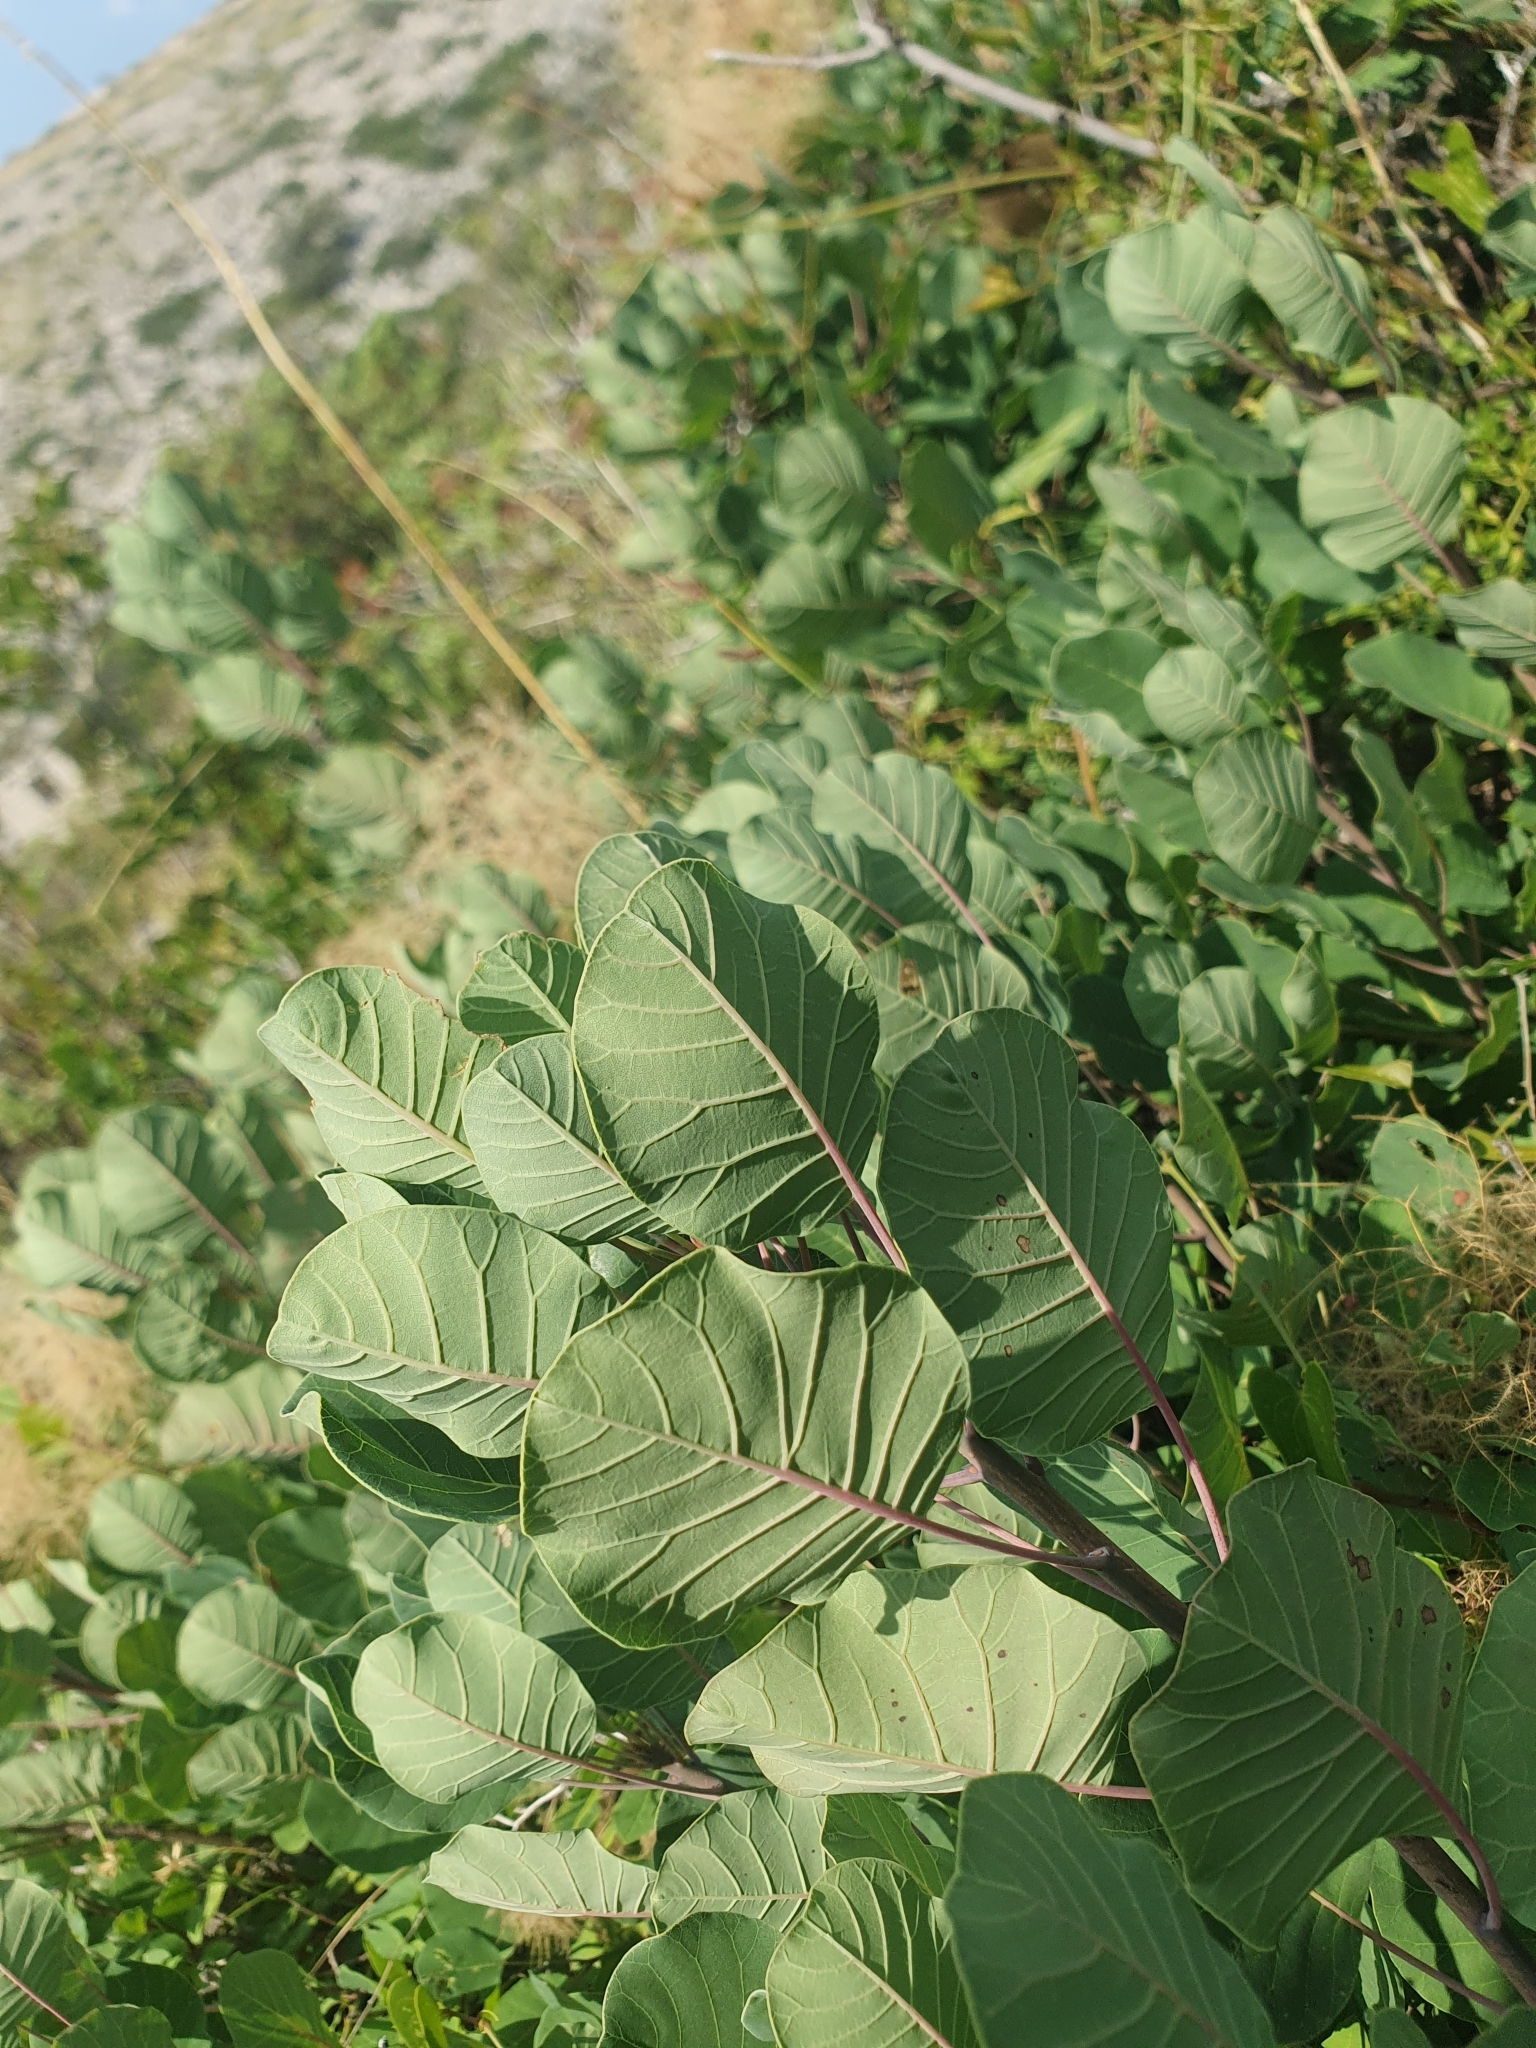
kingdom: Plantae
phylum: Tracheophyta
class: Magnoliopsida
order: Sapindales
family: Anacardiaceae
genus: Cotinus
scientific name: Cotinus coggygria
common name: Smoke-tree
